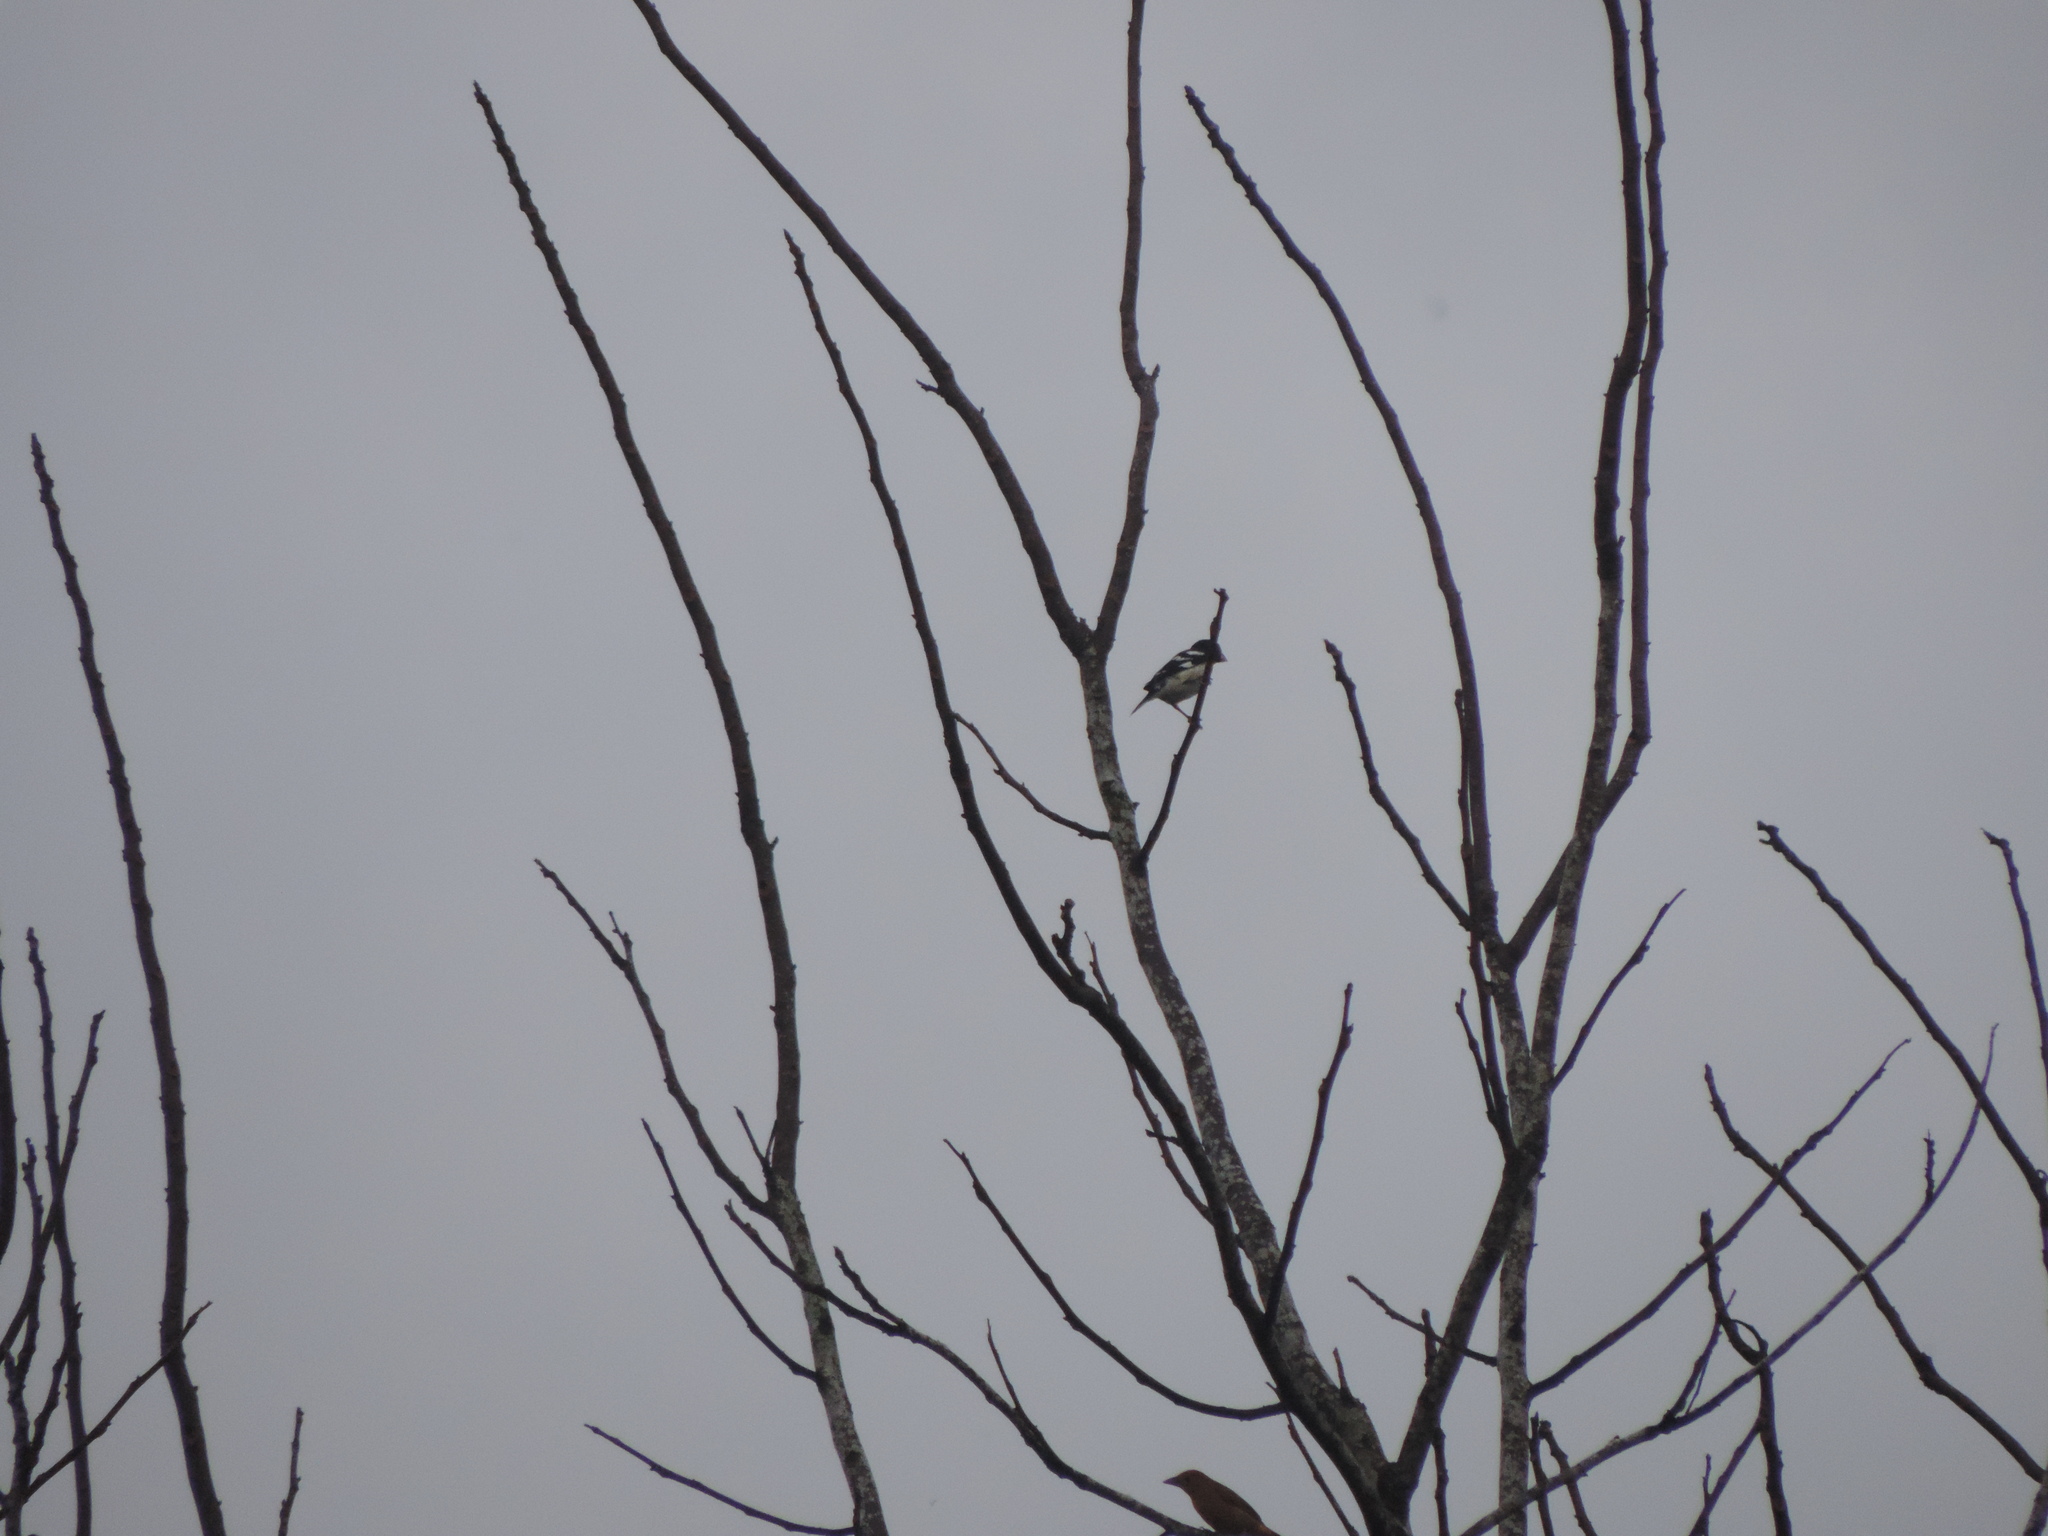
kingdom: Animalia
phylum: Chordata
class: Aves
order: Passeriformes
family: Cardinalidae
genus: Pheucticus
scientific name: Pheucticus ludovicianus
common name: Rose-breasted grosbeak
